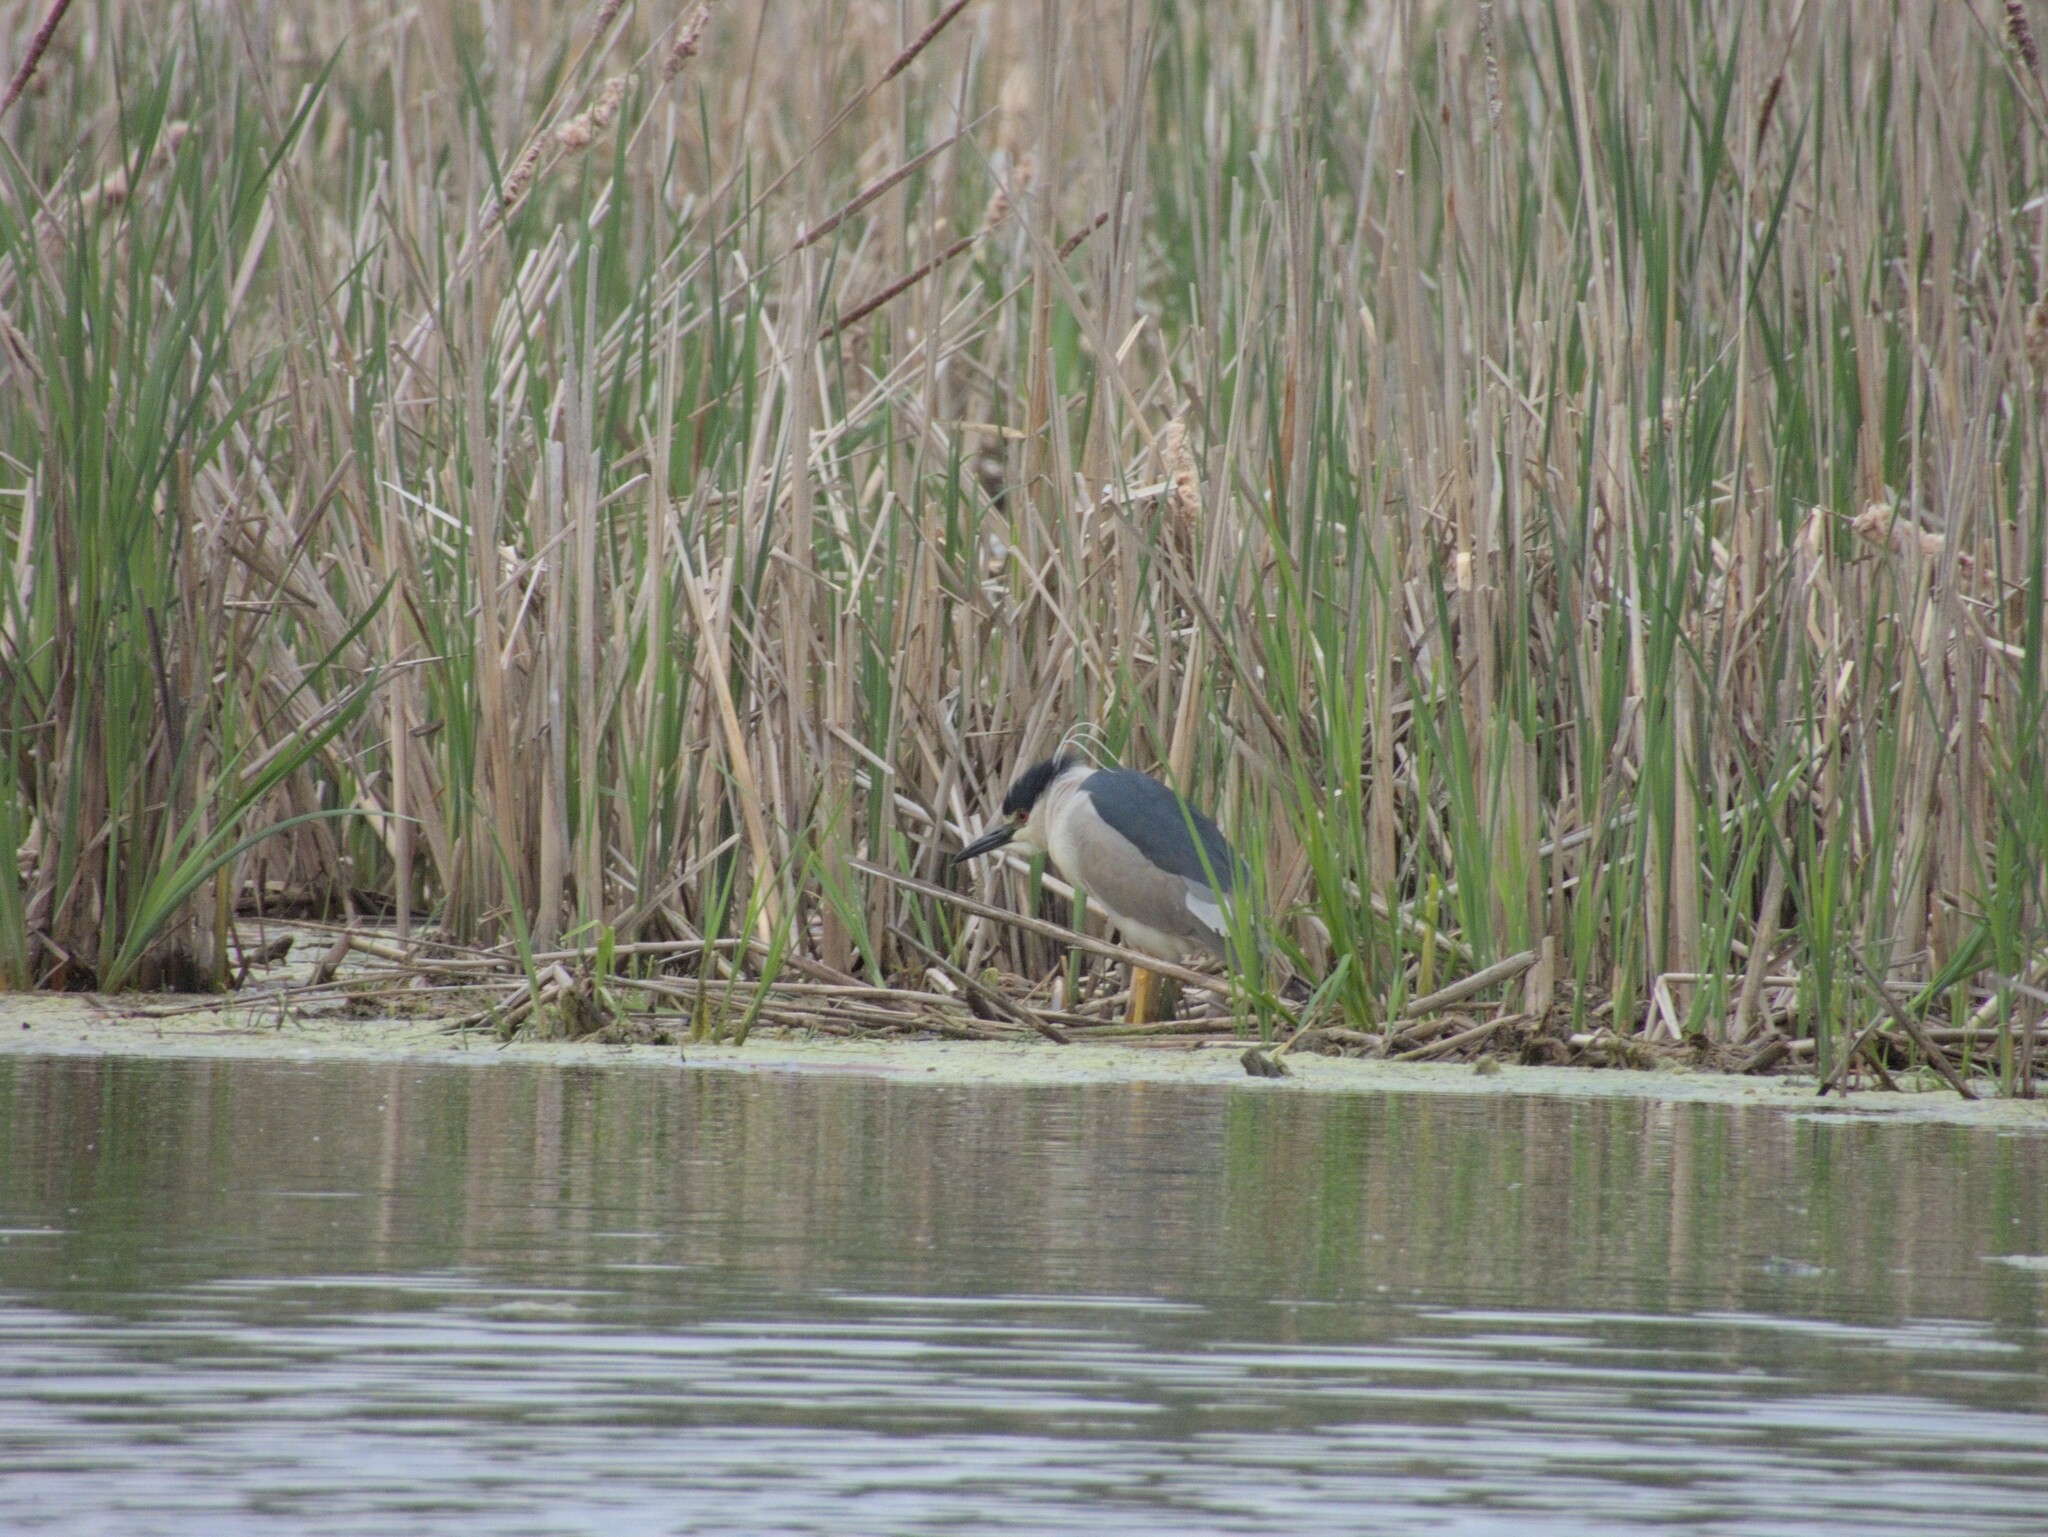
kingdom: Animalia
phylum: Chordata
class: Aves
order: Pelecaniformes
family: Ardeidae
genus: Nycticorax
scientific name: Nycticorax nycticorax
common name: Black-crowned night heron
